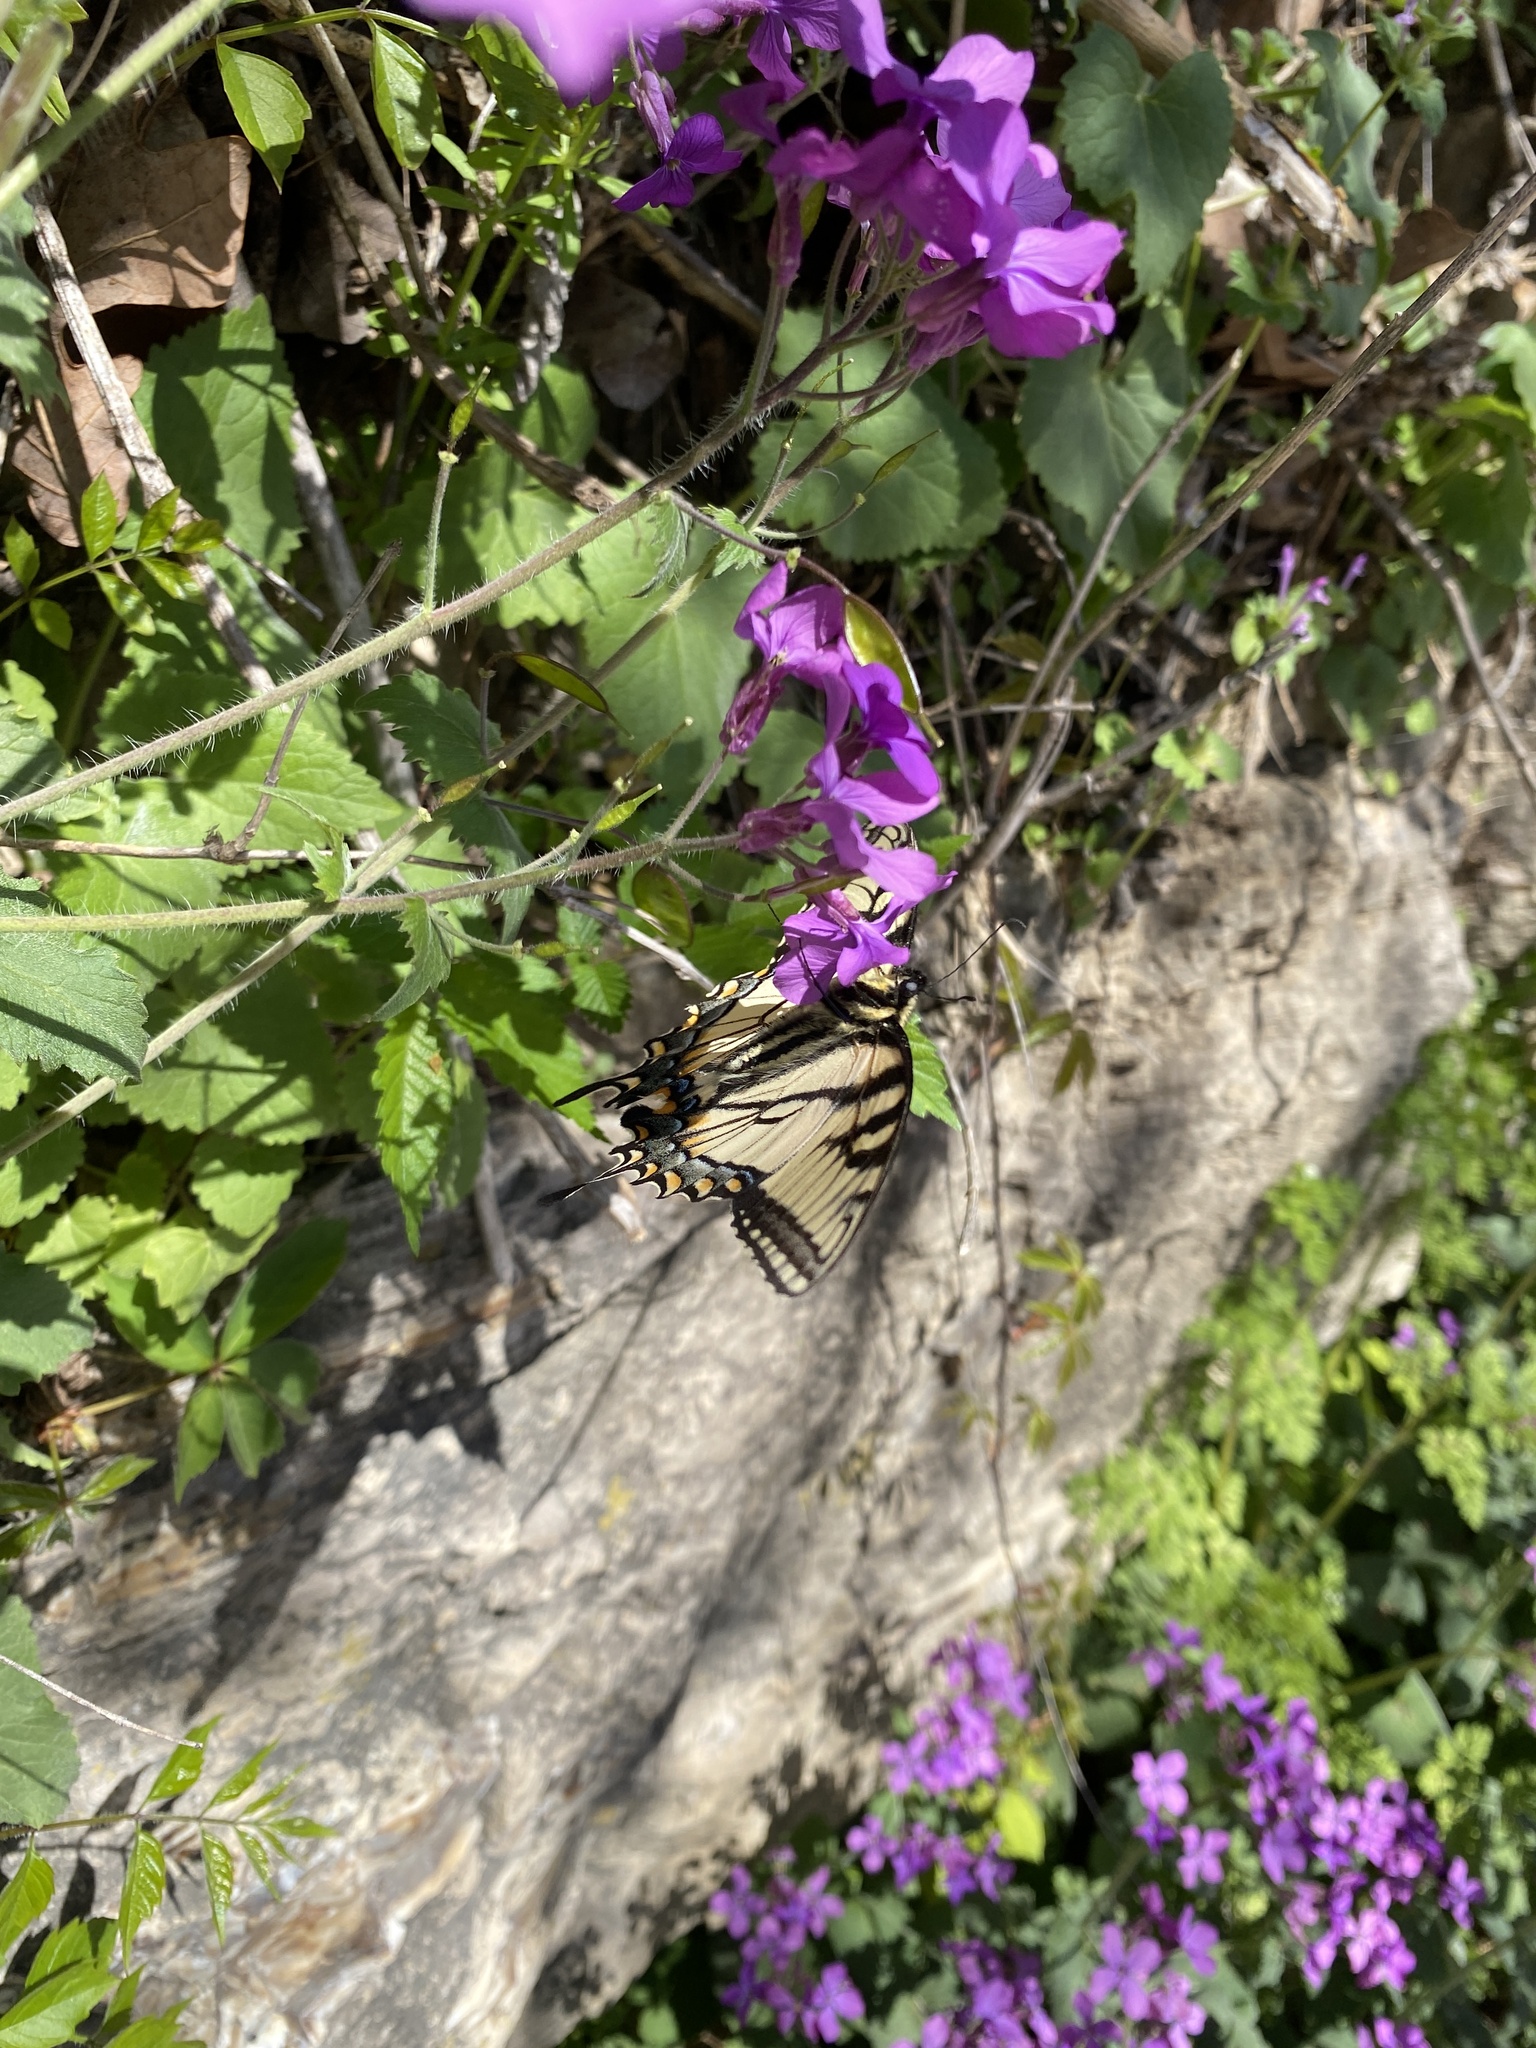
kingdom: Animalia
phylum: Arthropoda
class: Insecta
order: Lepidoptera
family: Papilionidae
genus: Papilio
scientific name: Papilio glaucus
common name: Tiger swallowtail
